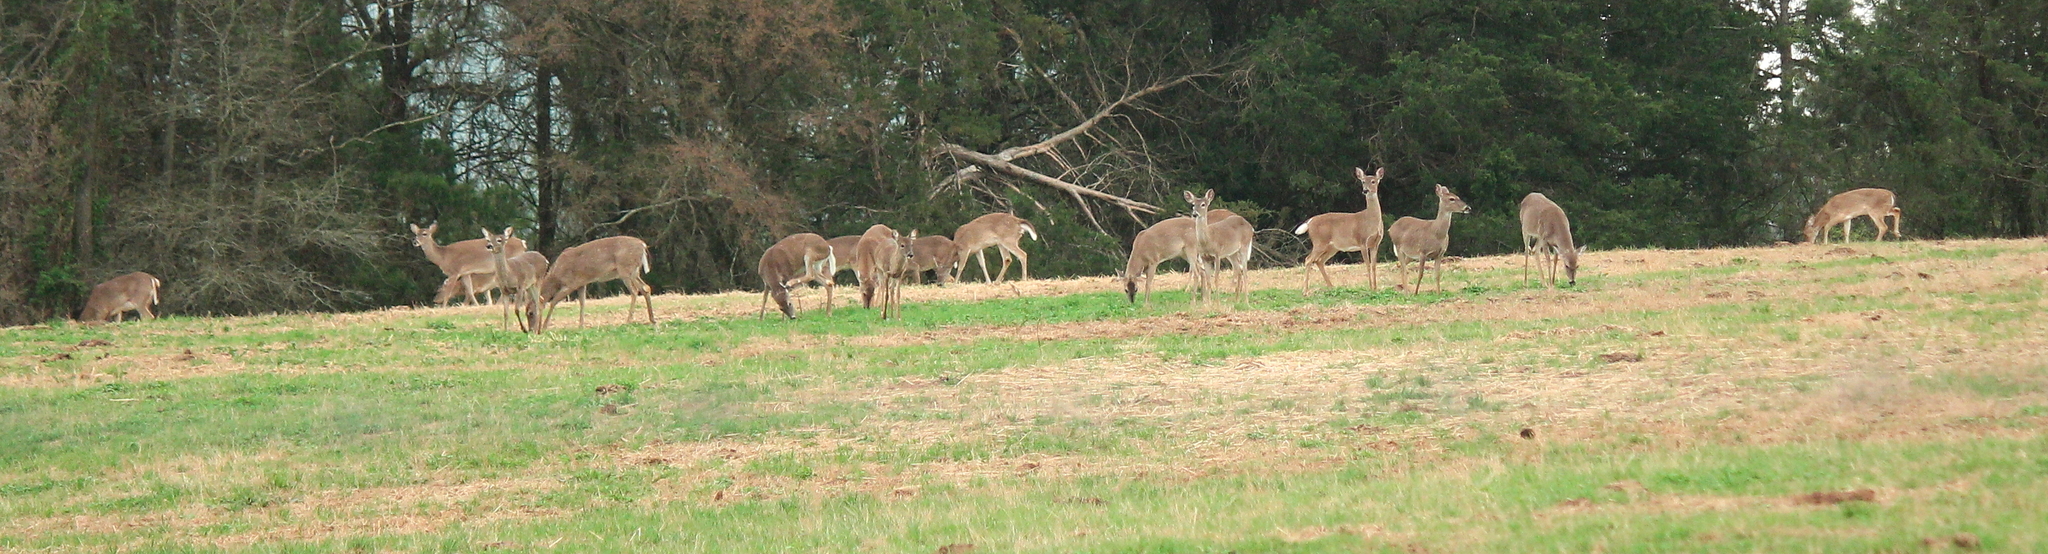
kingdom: Animalia
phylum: Chordata
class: Mammalia
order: Artiodactyla
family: Cervidae
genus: Odocoileus
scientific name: Odocoileus virginianus
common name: White-tailed deer
